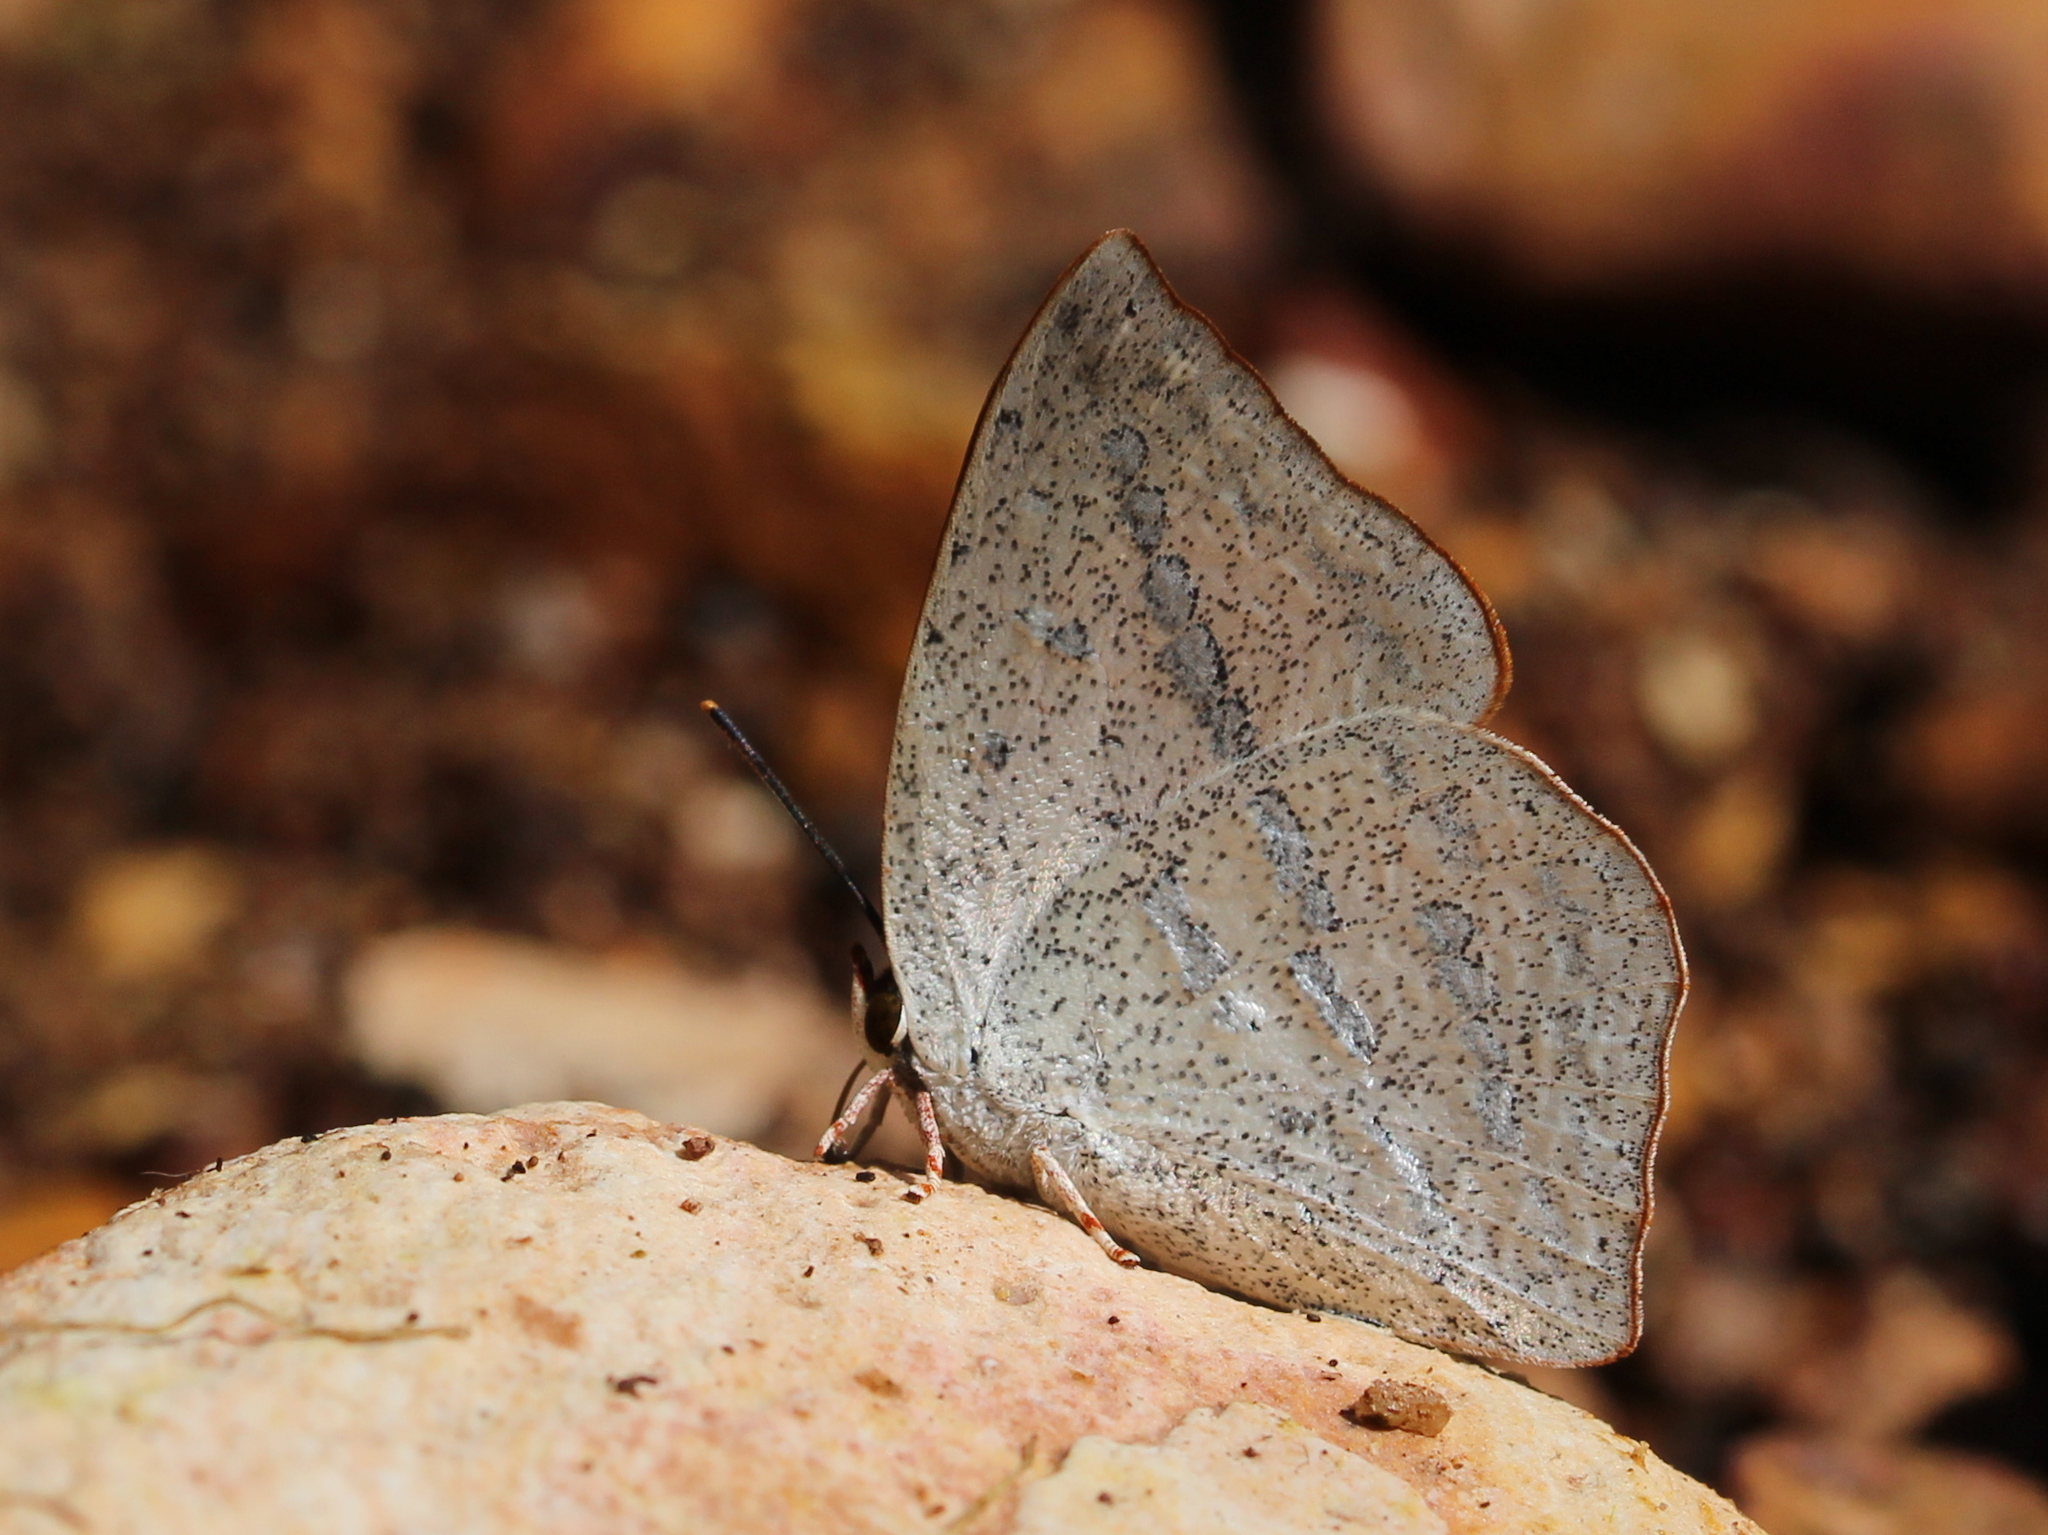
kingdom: Animalia
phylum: Arthropoda
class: Insecta
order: Lepidoptera
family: Lycaenidae
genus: Curetis
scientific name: Curetis acuta
